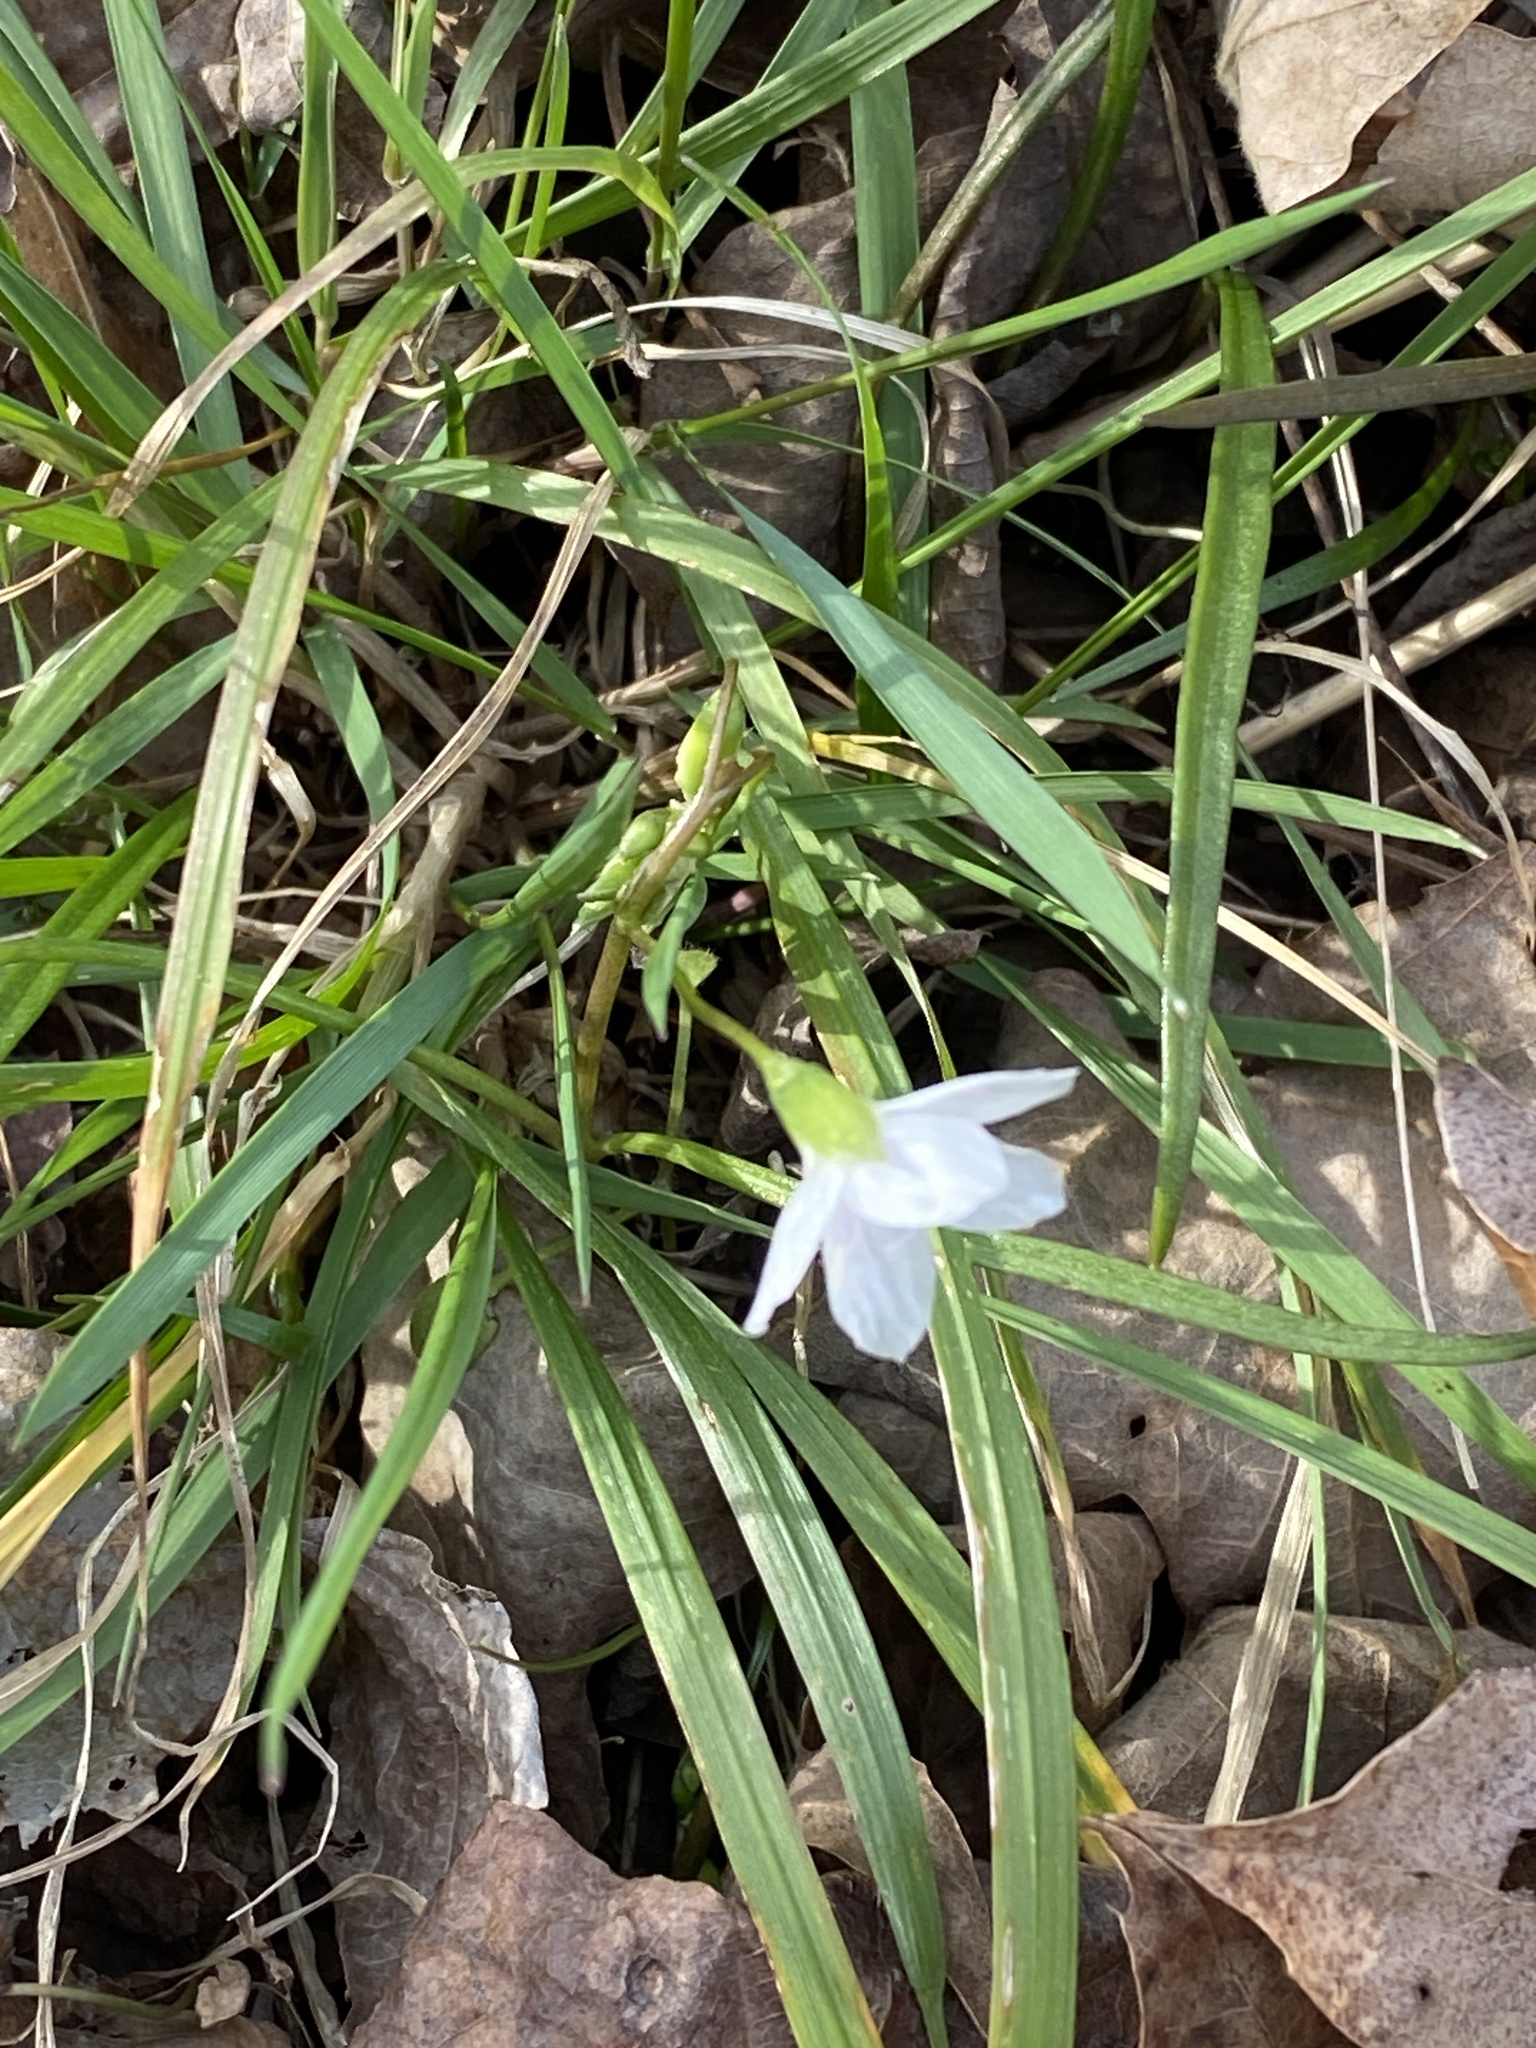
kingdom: Plantae
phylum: Tracheophyta
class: Magnoliopsida
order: Caryophyllales
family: Montiaceae
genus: Claytonia
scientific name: Claytonia virginica
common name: Virginia springbeauty
